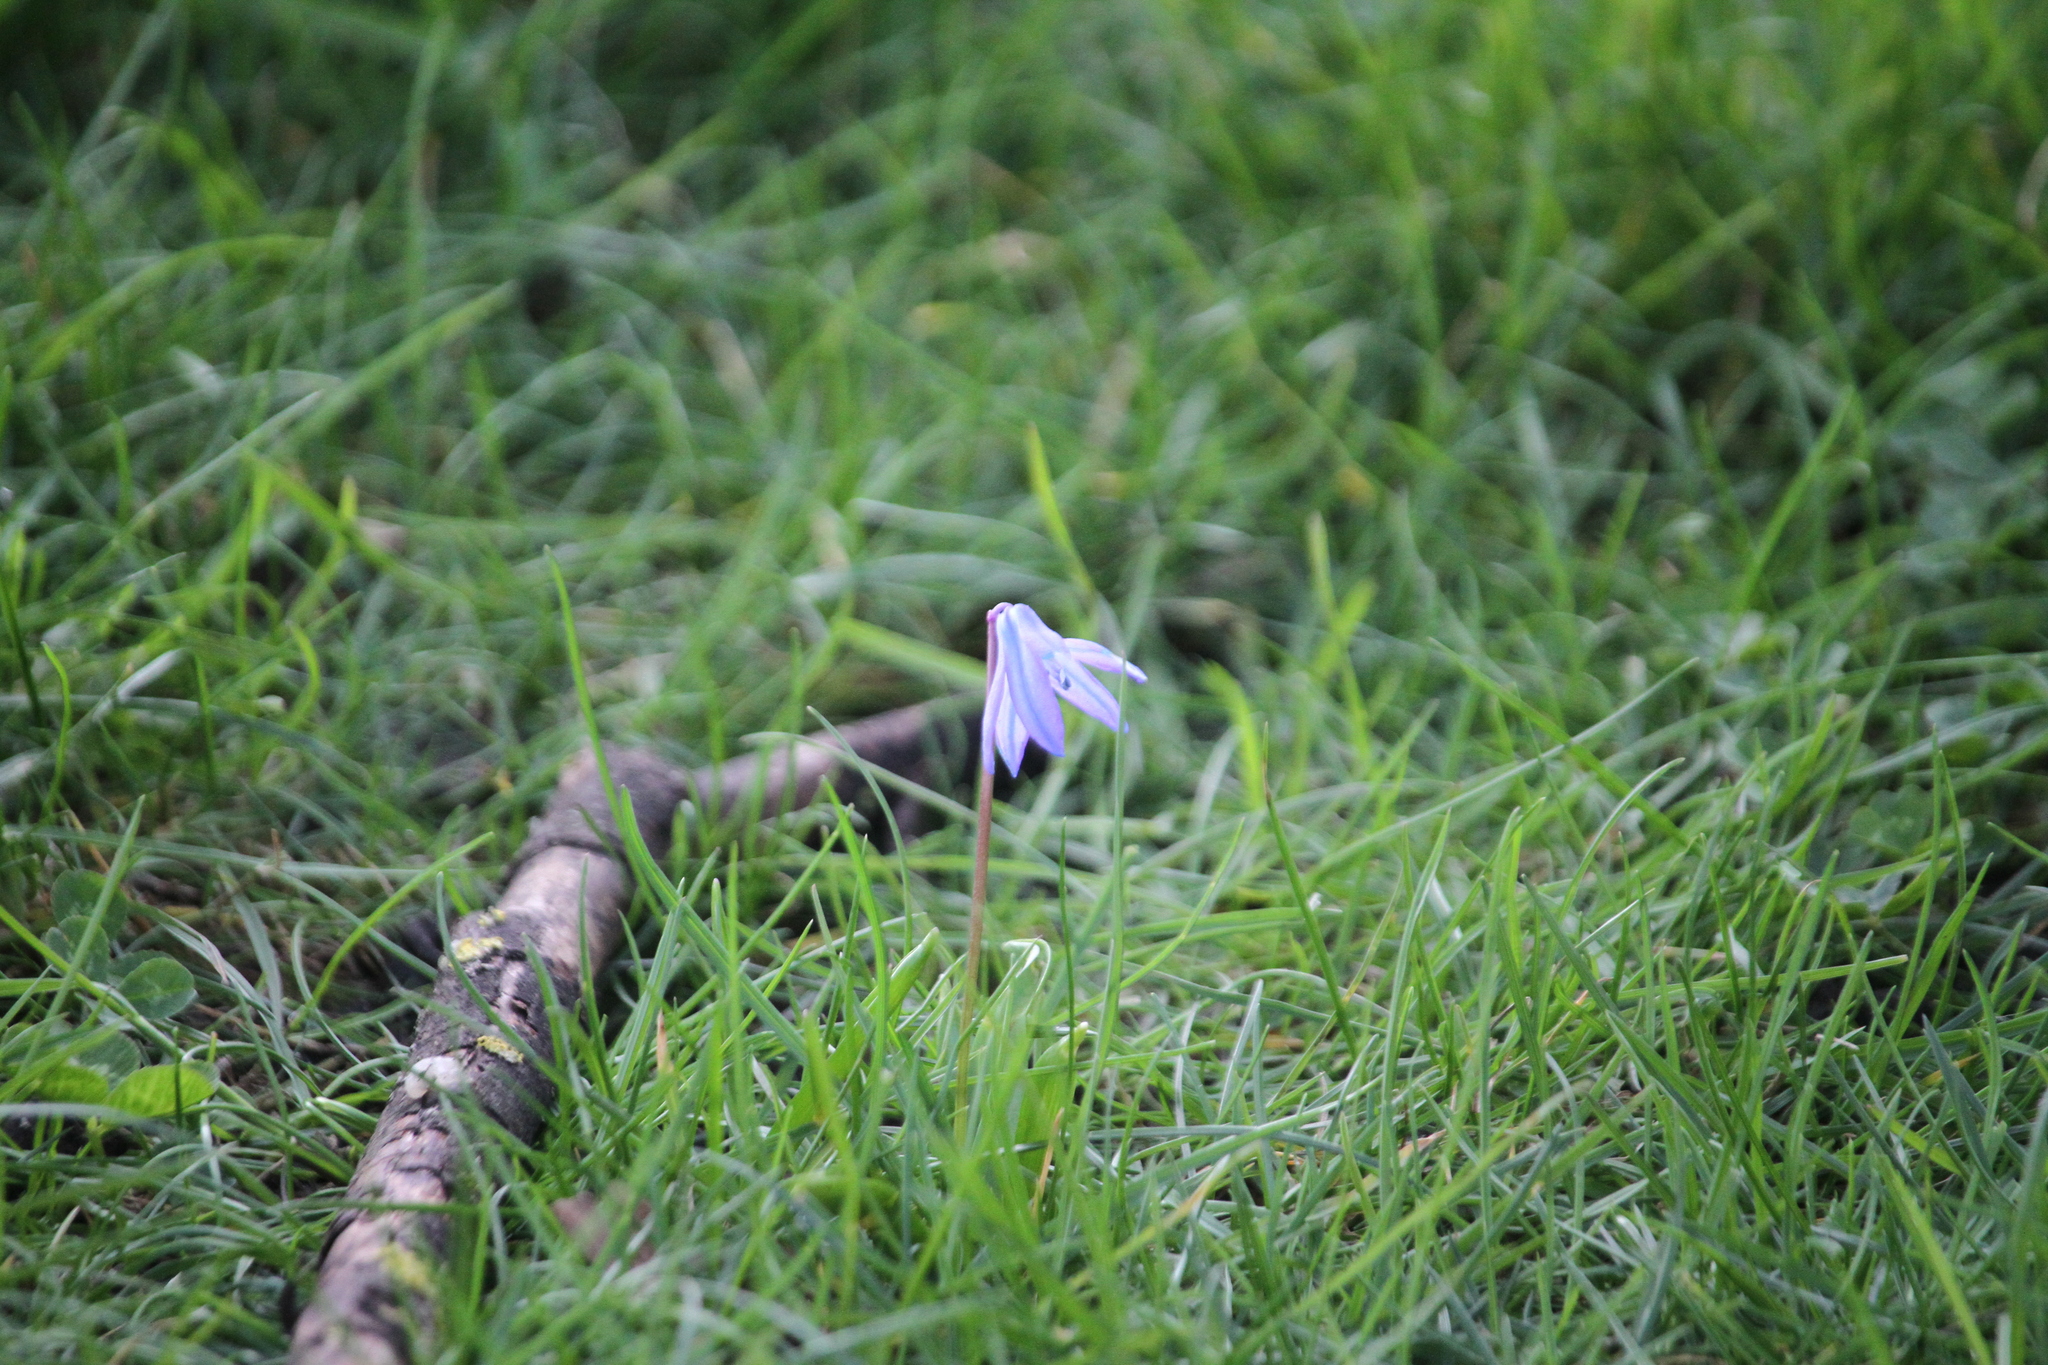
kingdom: Plantae
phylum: Tracheophyta
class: Liliopsida
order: Asparagales
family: Asparagaceae
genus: Scilla
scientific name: Scilla siberica
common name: Siberian squill
